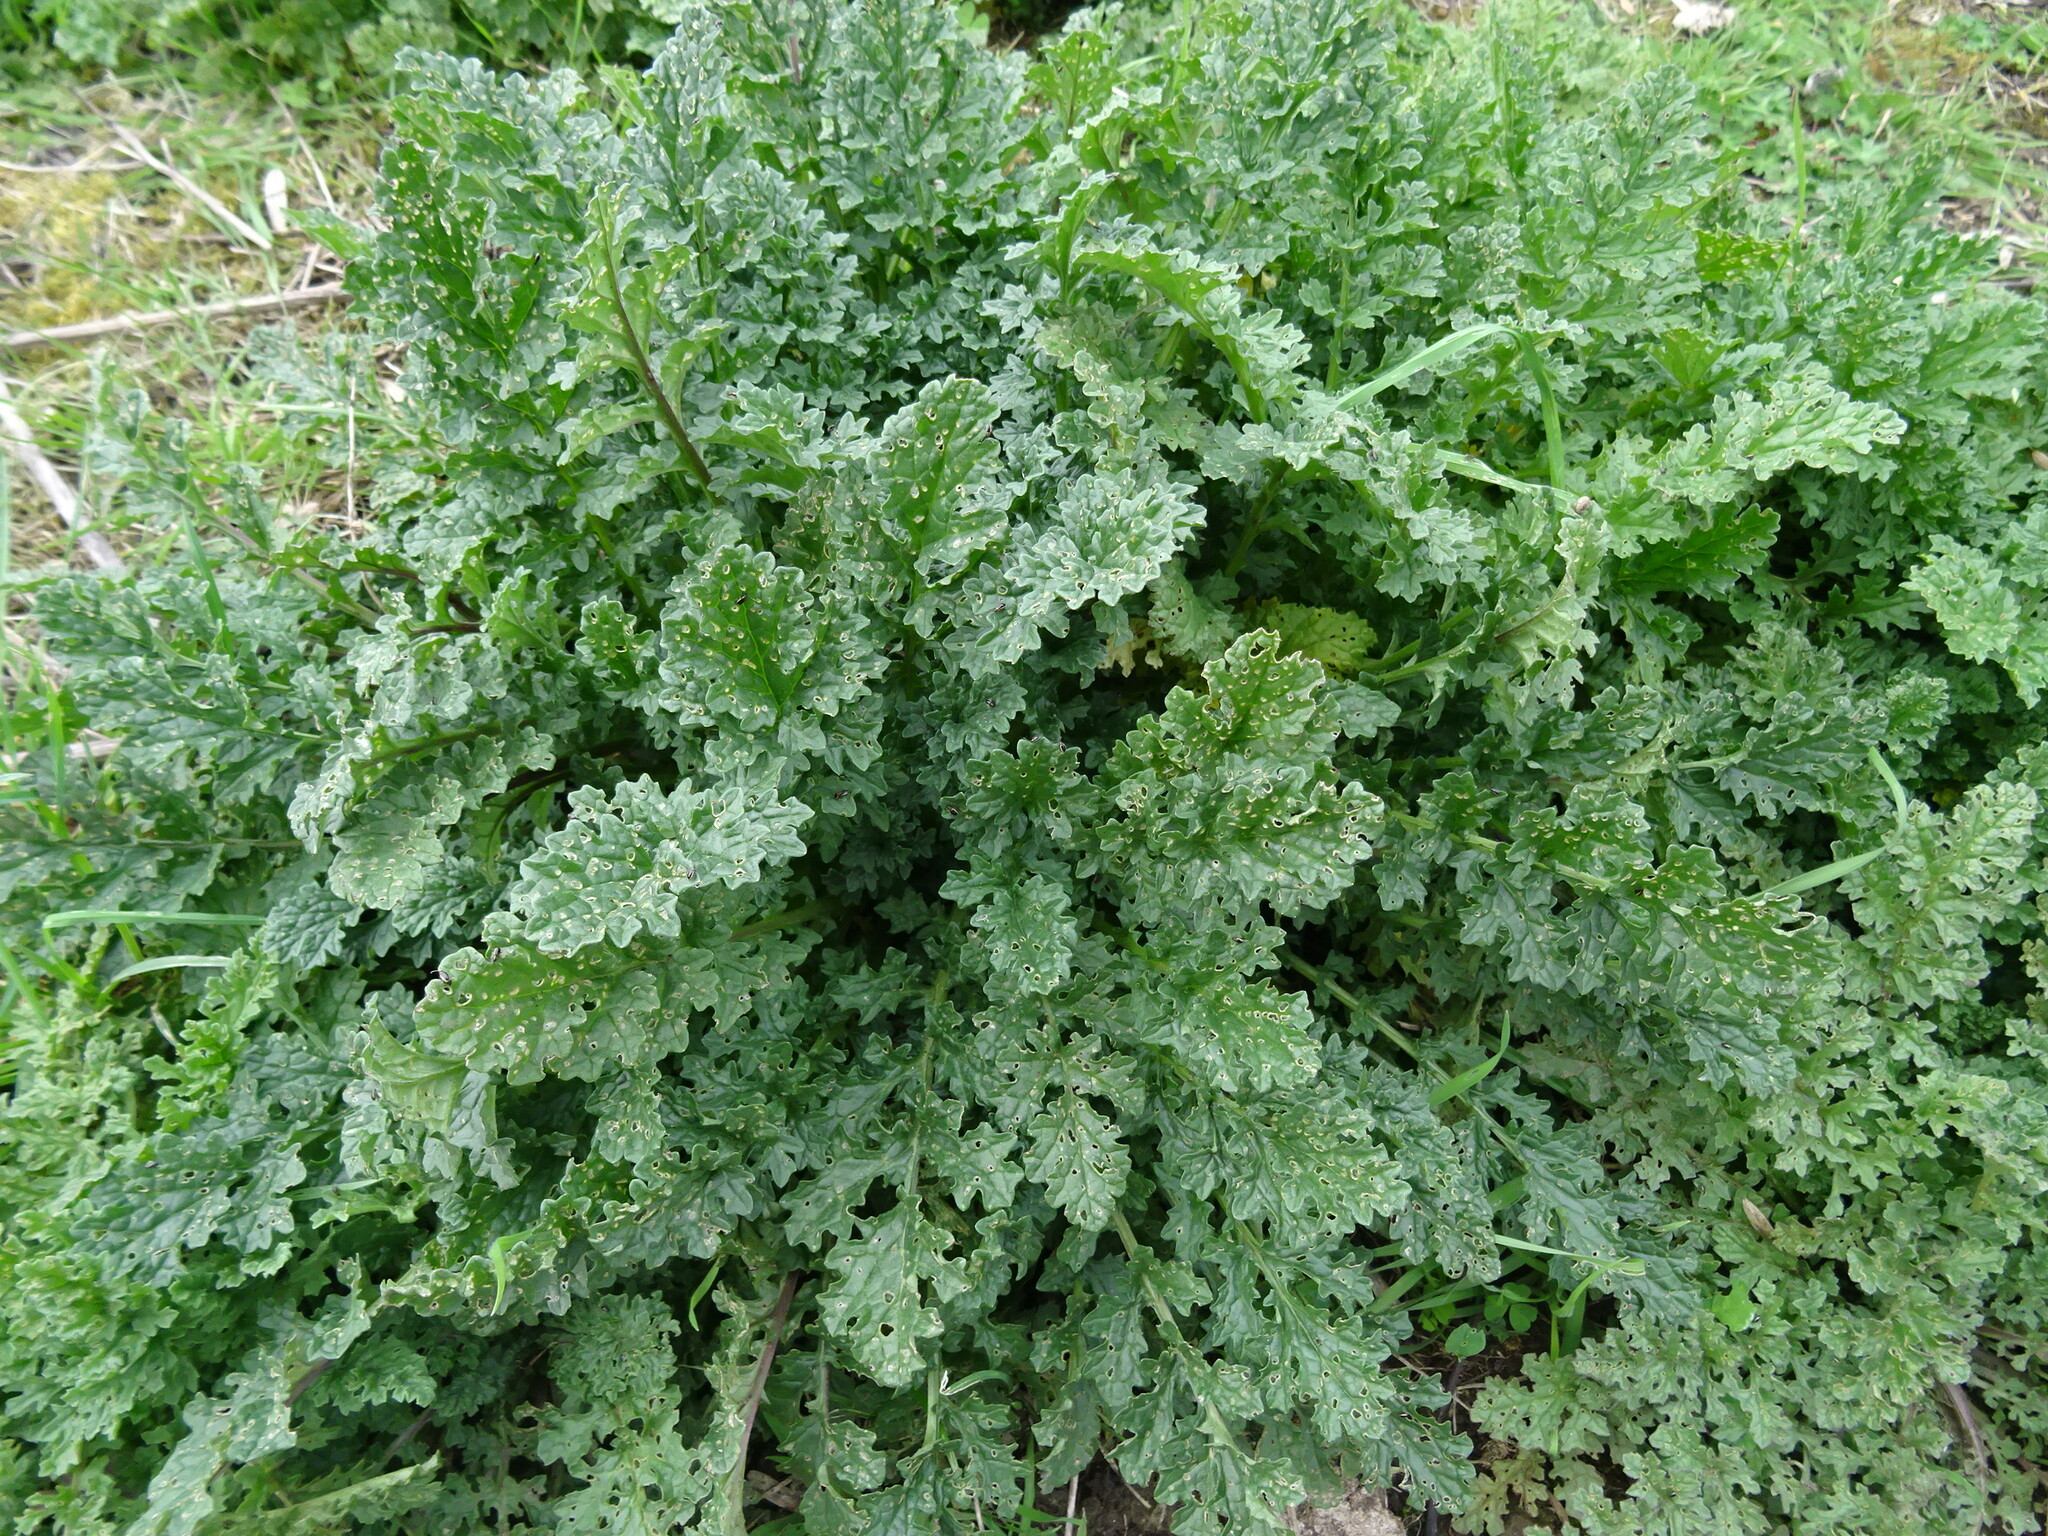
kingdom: Plantae
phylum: Tracheophyta
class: Magnoliopsida
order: Asterales
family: Asteraceae
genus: Jacobaea
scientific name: Jacobaea vulgaris
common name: Stinking willie
